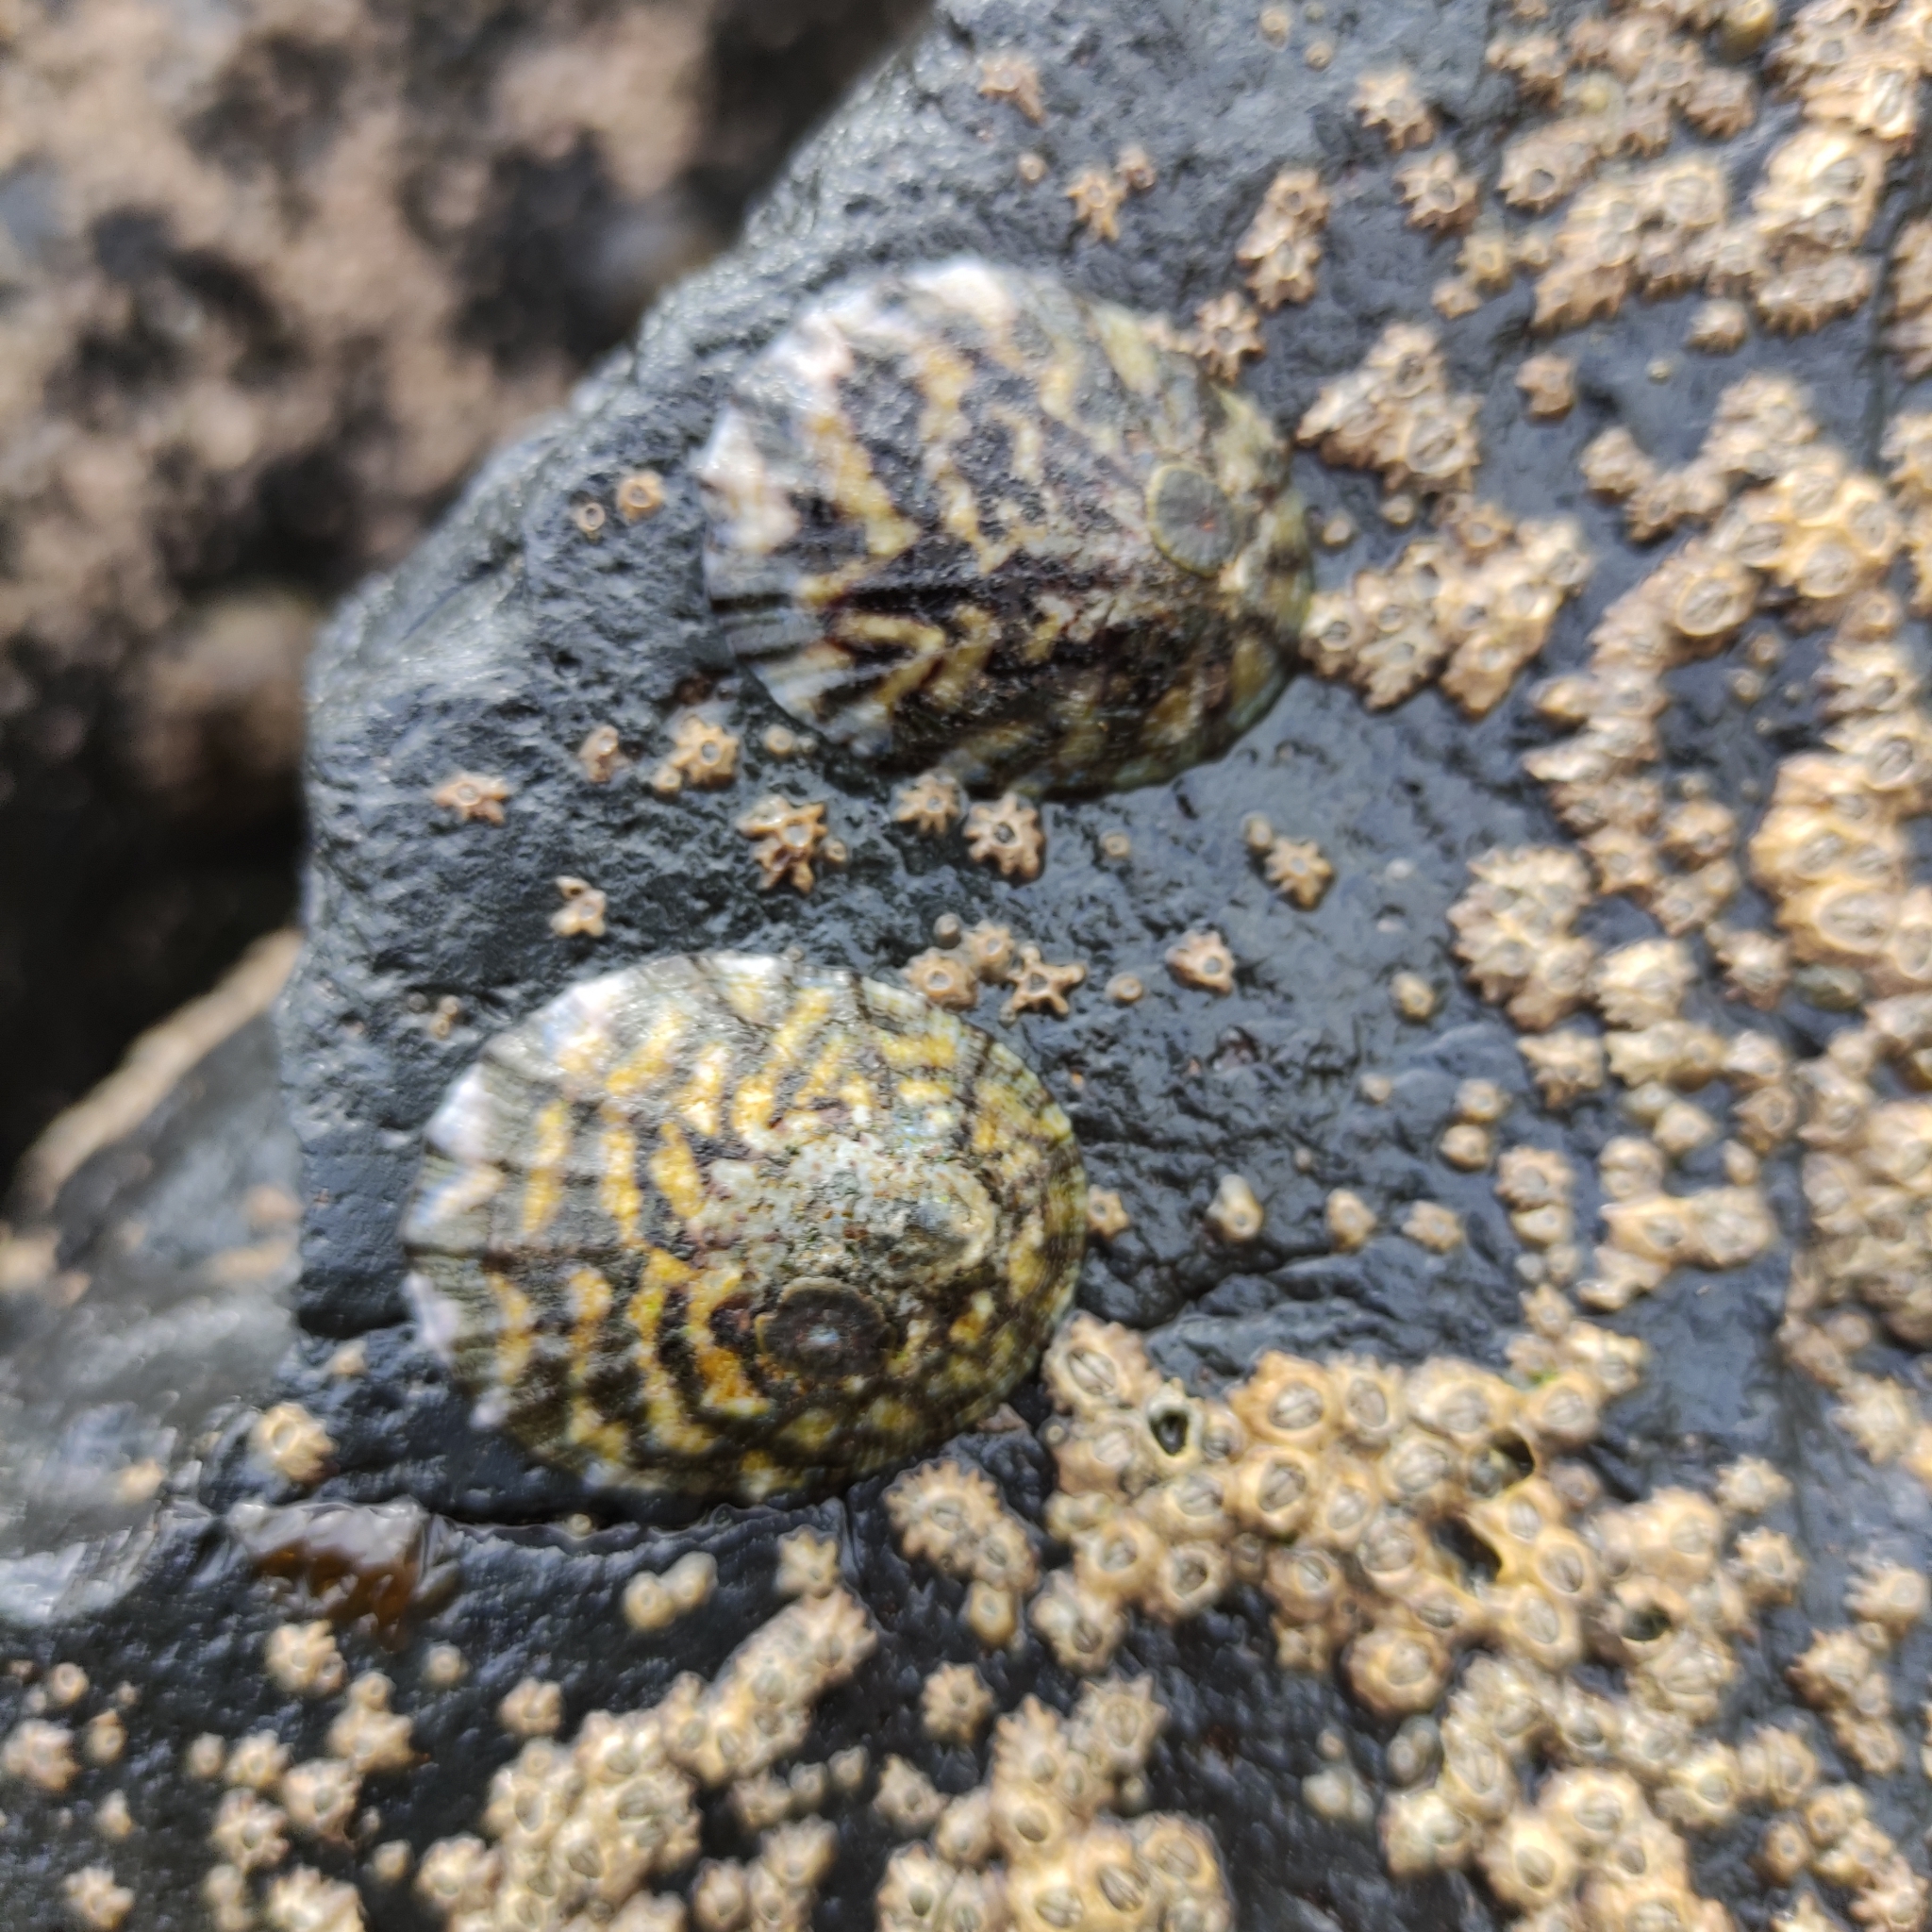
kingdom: Animalia
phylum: Mollusca
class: Gastropoda
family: Nacellidae
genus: Cellana
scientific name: Cellana radians
